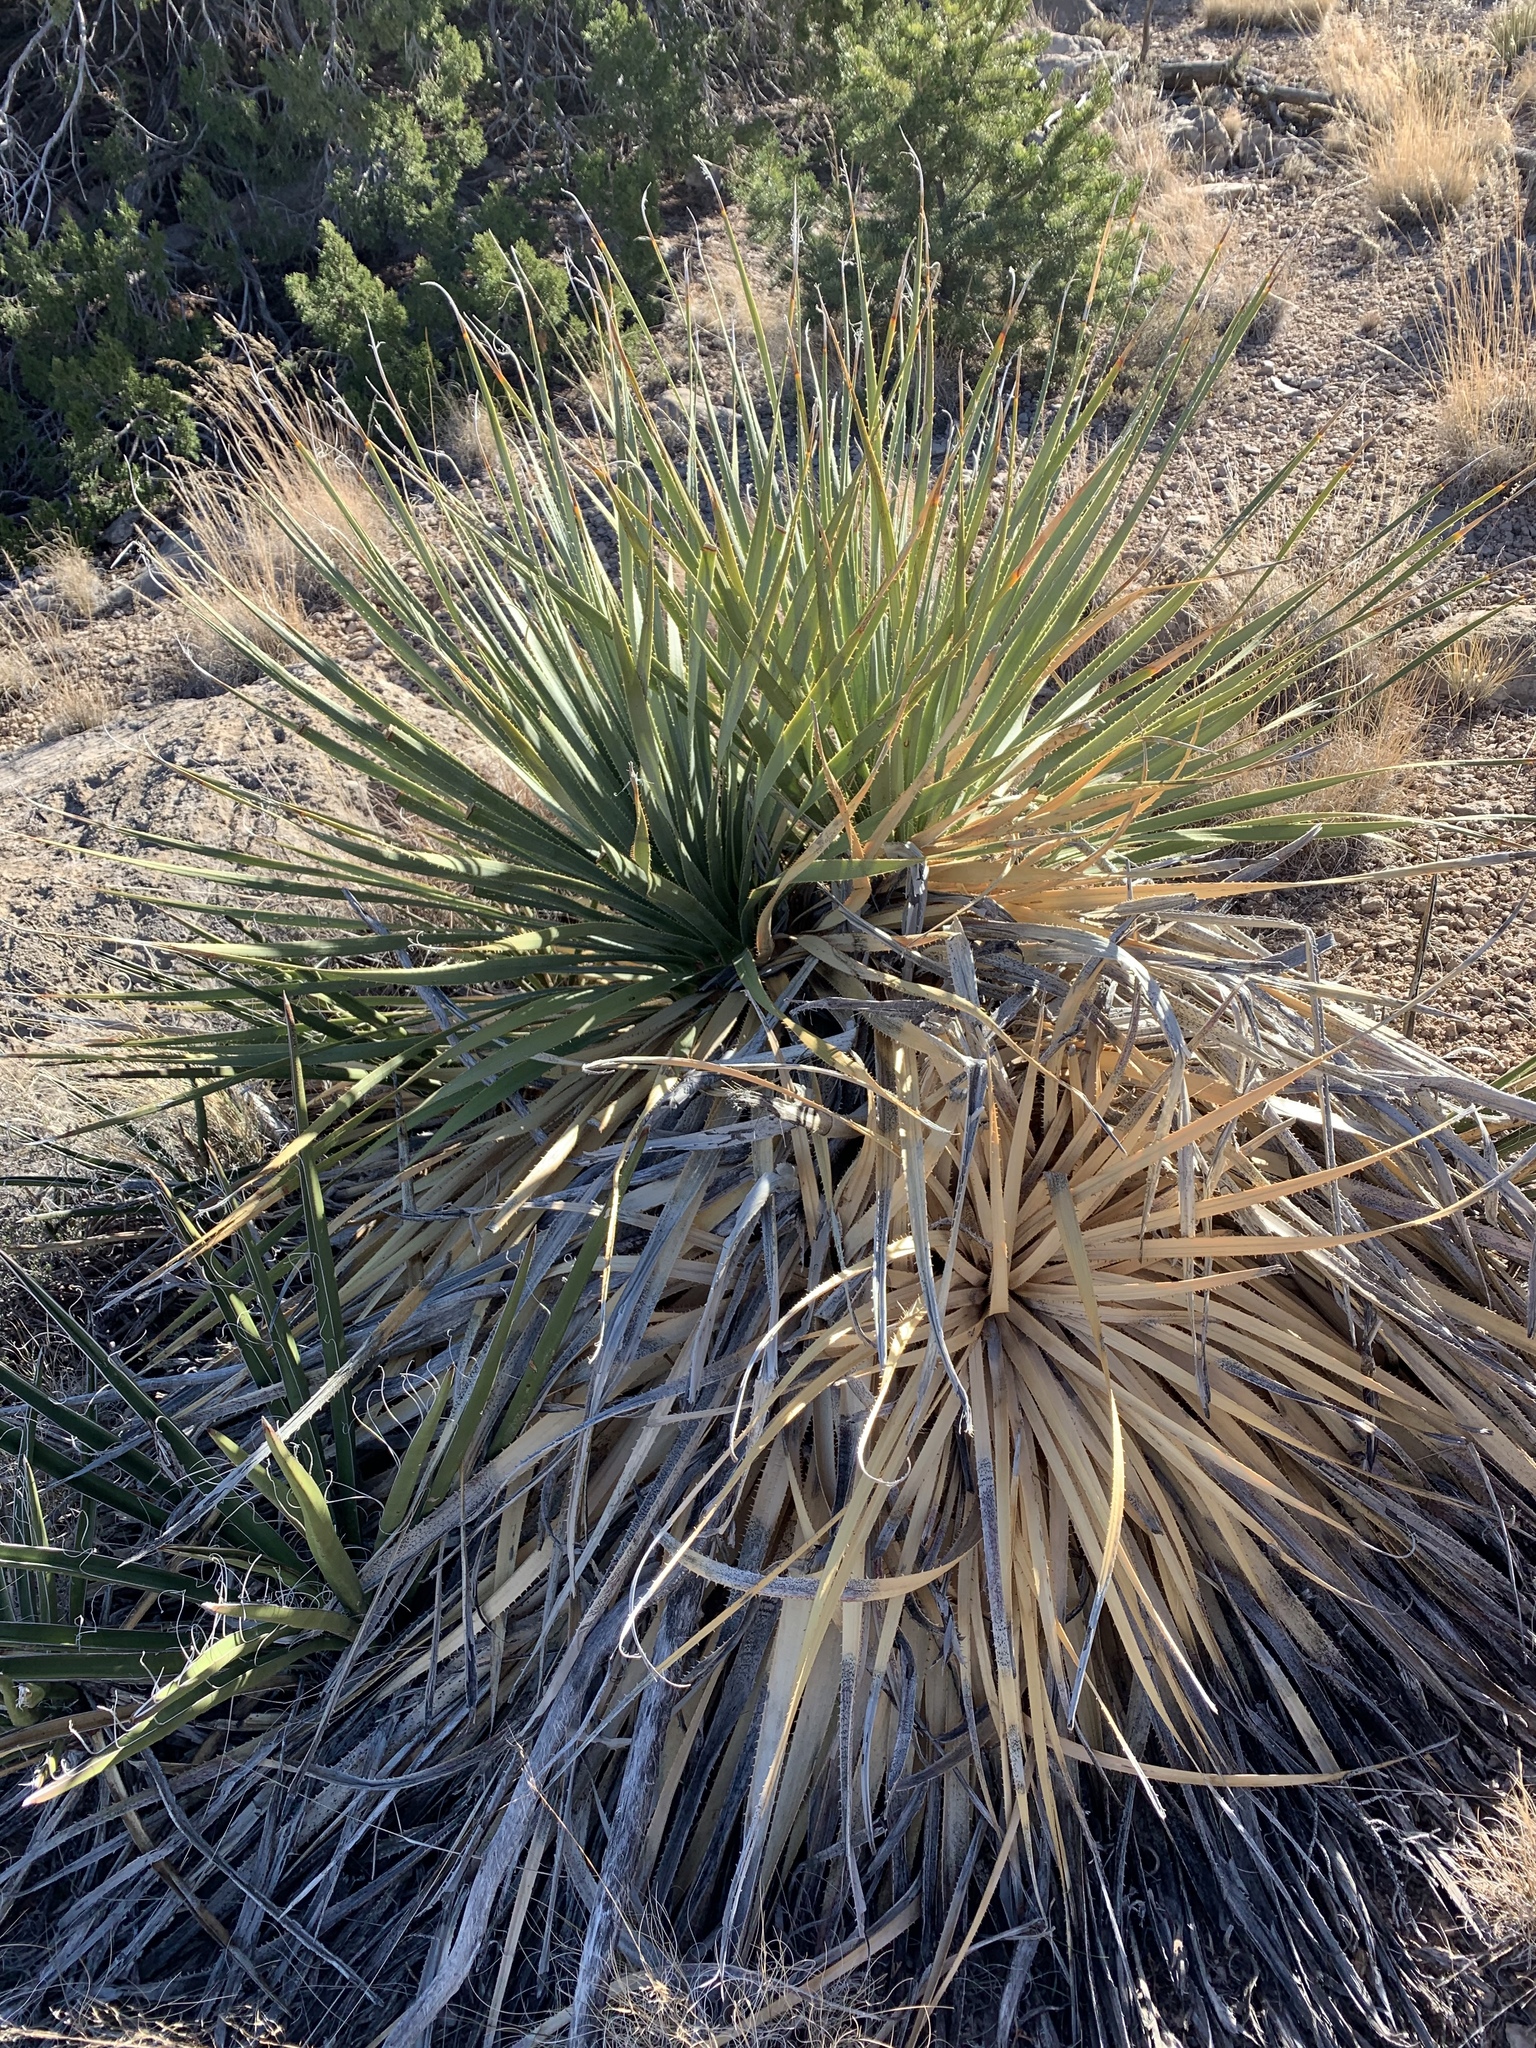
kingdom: Plantae
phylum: Tracheophyta
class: Liliopsida
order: Asparagales
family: Asparagaceae
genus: Dasylirion
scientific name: Dasylirion wheeleri
